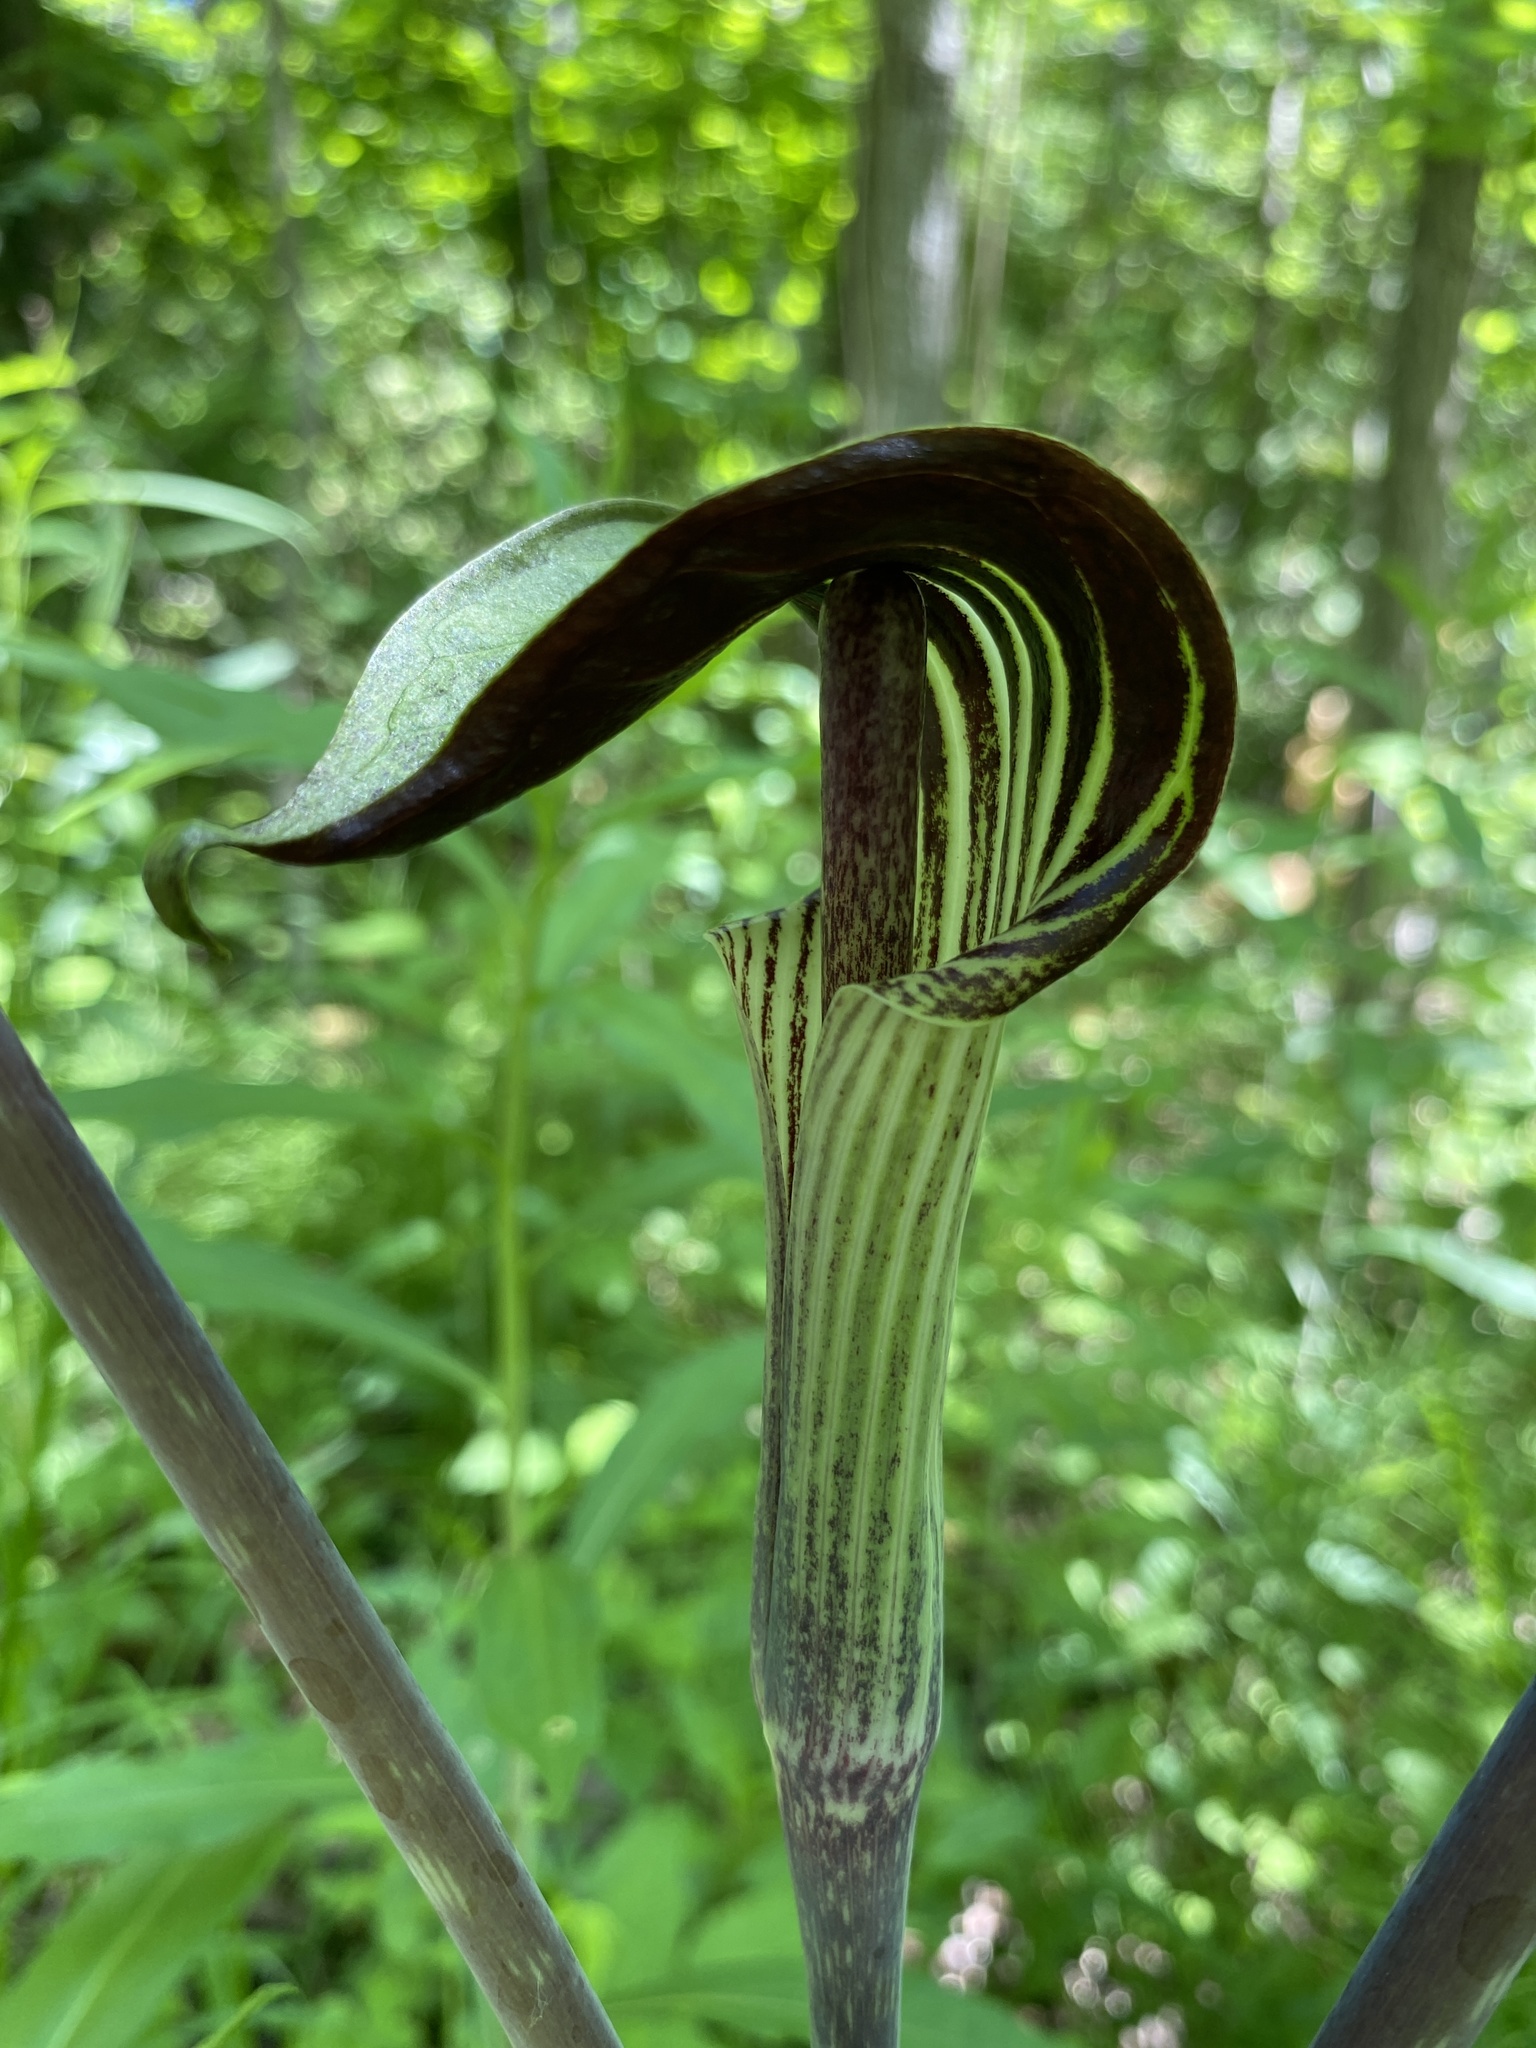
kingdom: Plantae
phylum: Tracheophyta
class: Liliopsida
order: Alismatales
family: Araceae
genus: Arisaema
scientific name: Arisaema triphyllum
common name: Jack-in-the-pulpit
